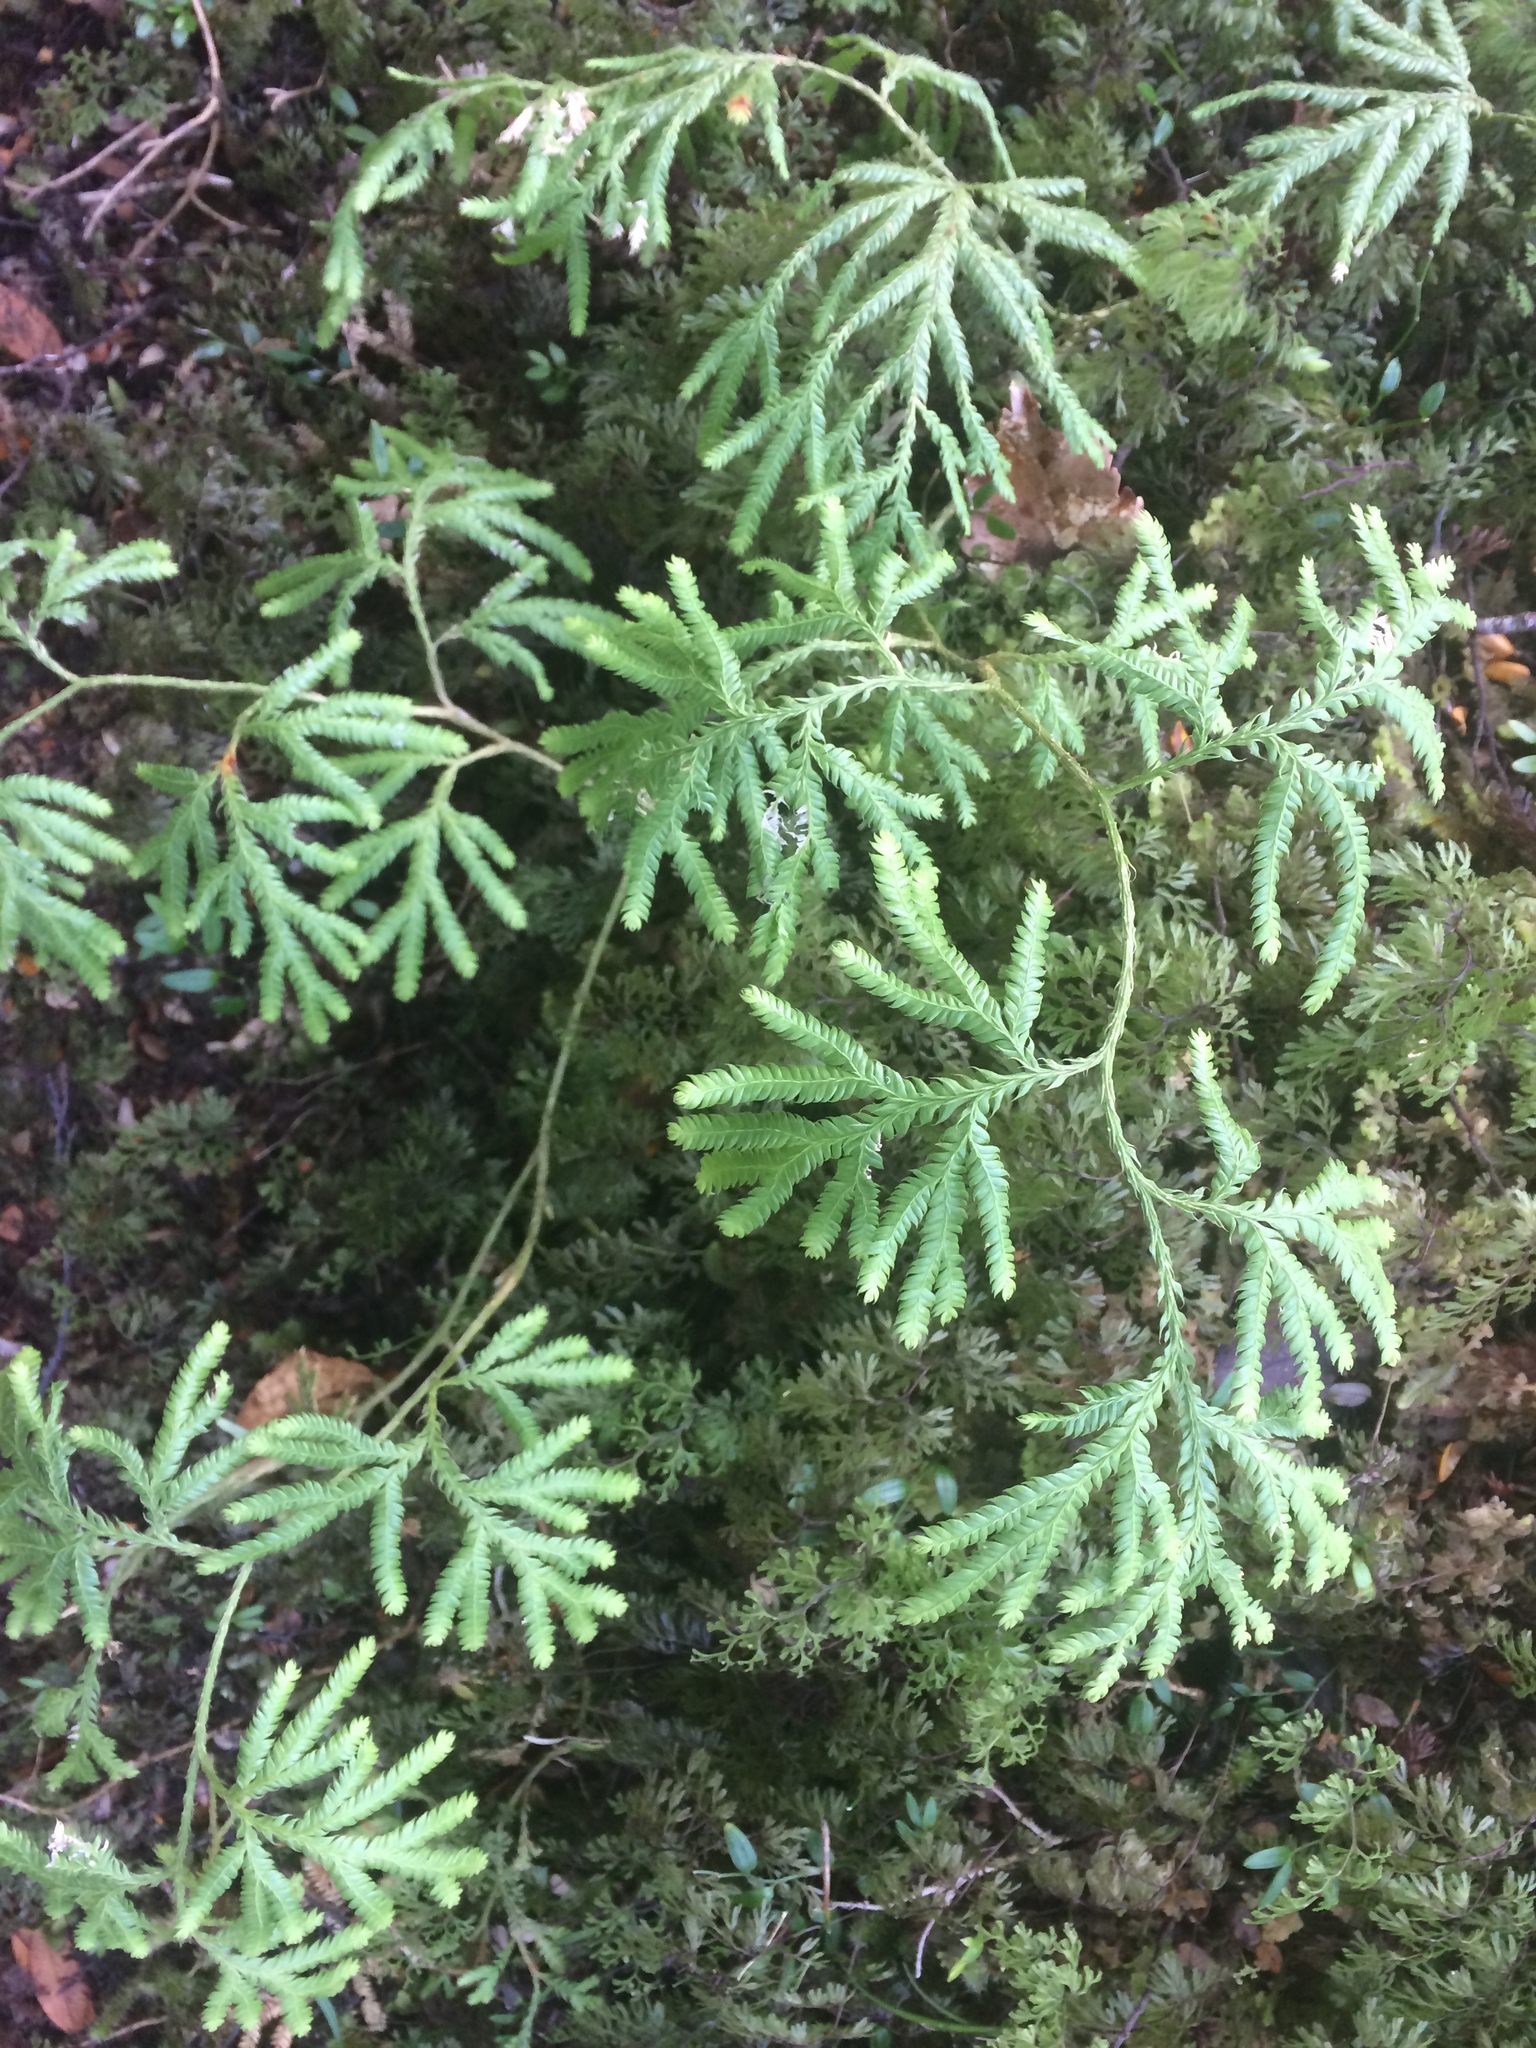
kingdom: Plantae
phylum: Tracheophyta
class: Lycopodiopsida
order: Lycopodiales
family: Lycopodiaceae
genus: Lycopodium
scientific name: Lycopodium volubile
